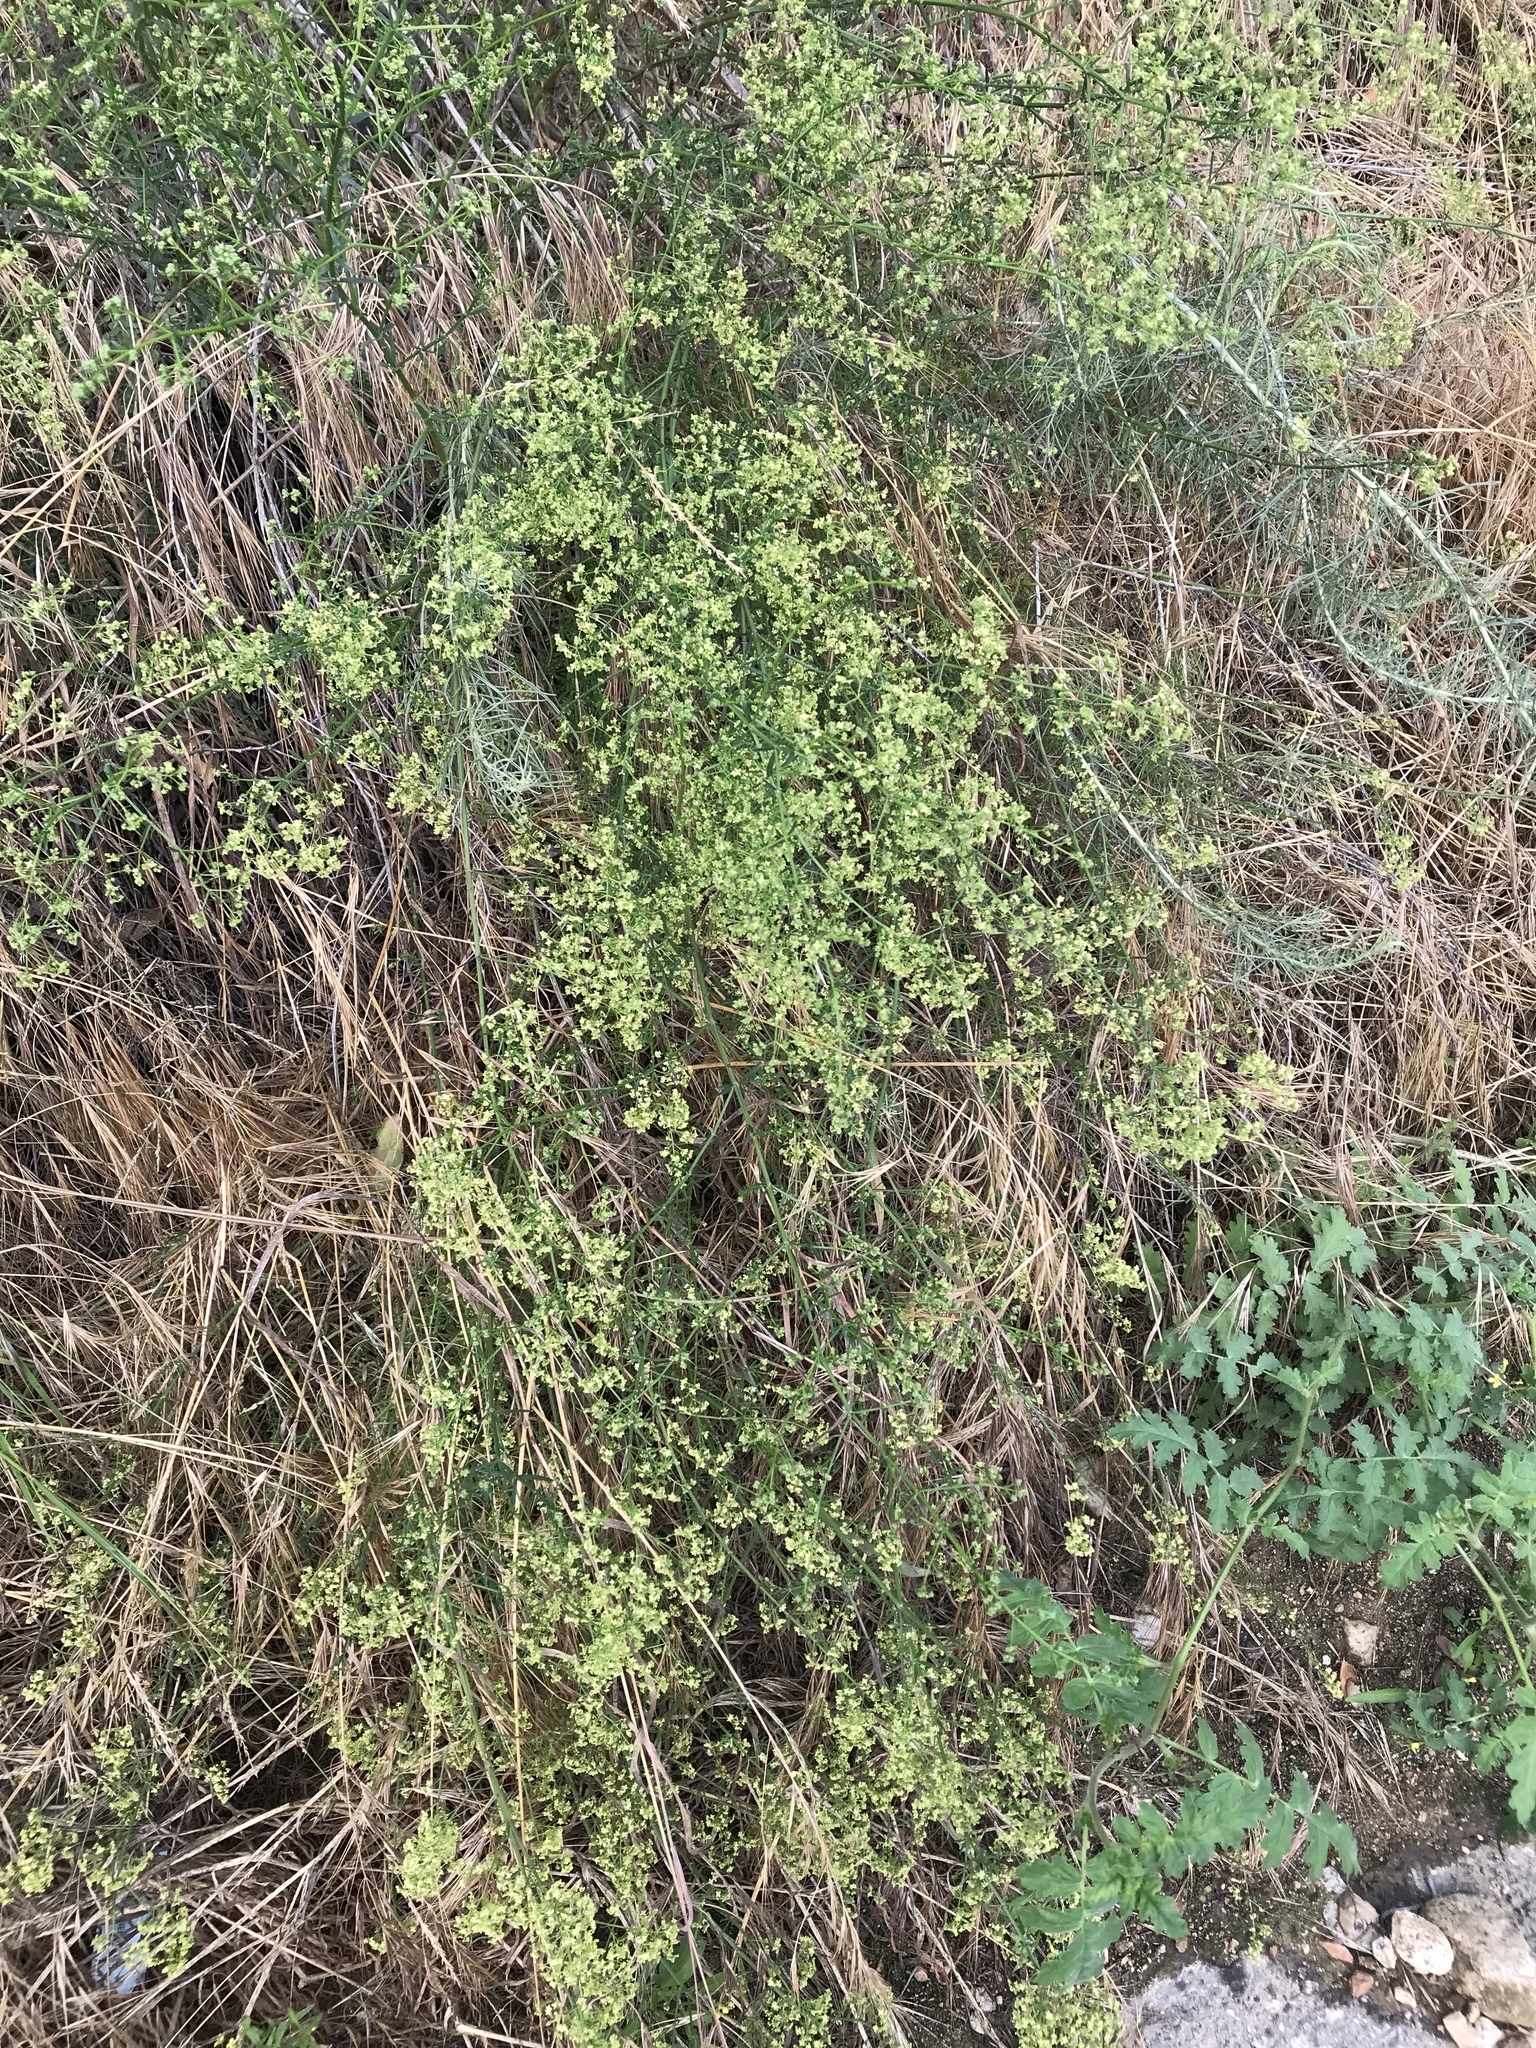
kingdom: Plantae
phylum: Tracheophyta
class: Magnoliopsida
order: Gentianales
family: Rubiaceae
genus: Galium
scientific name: Galium angustifolium
